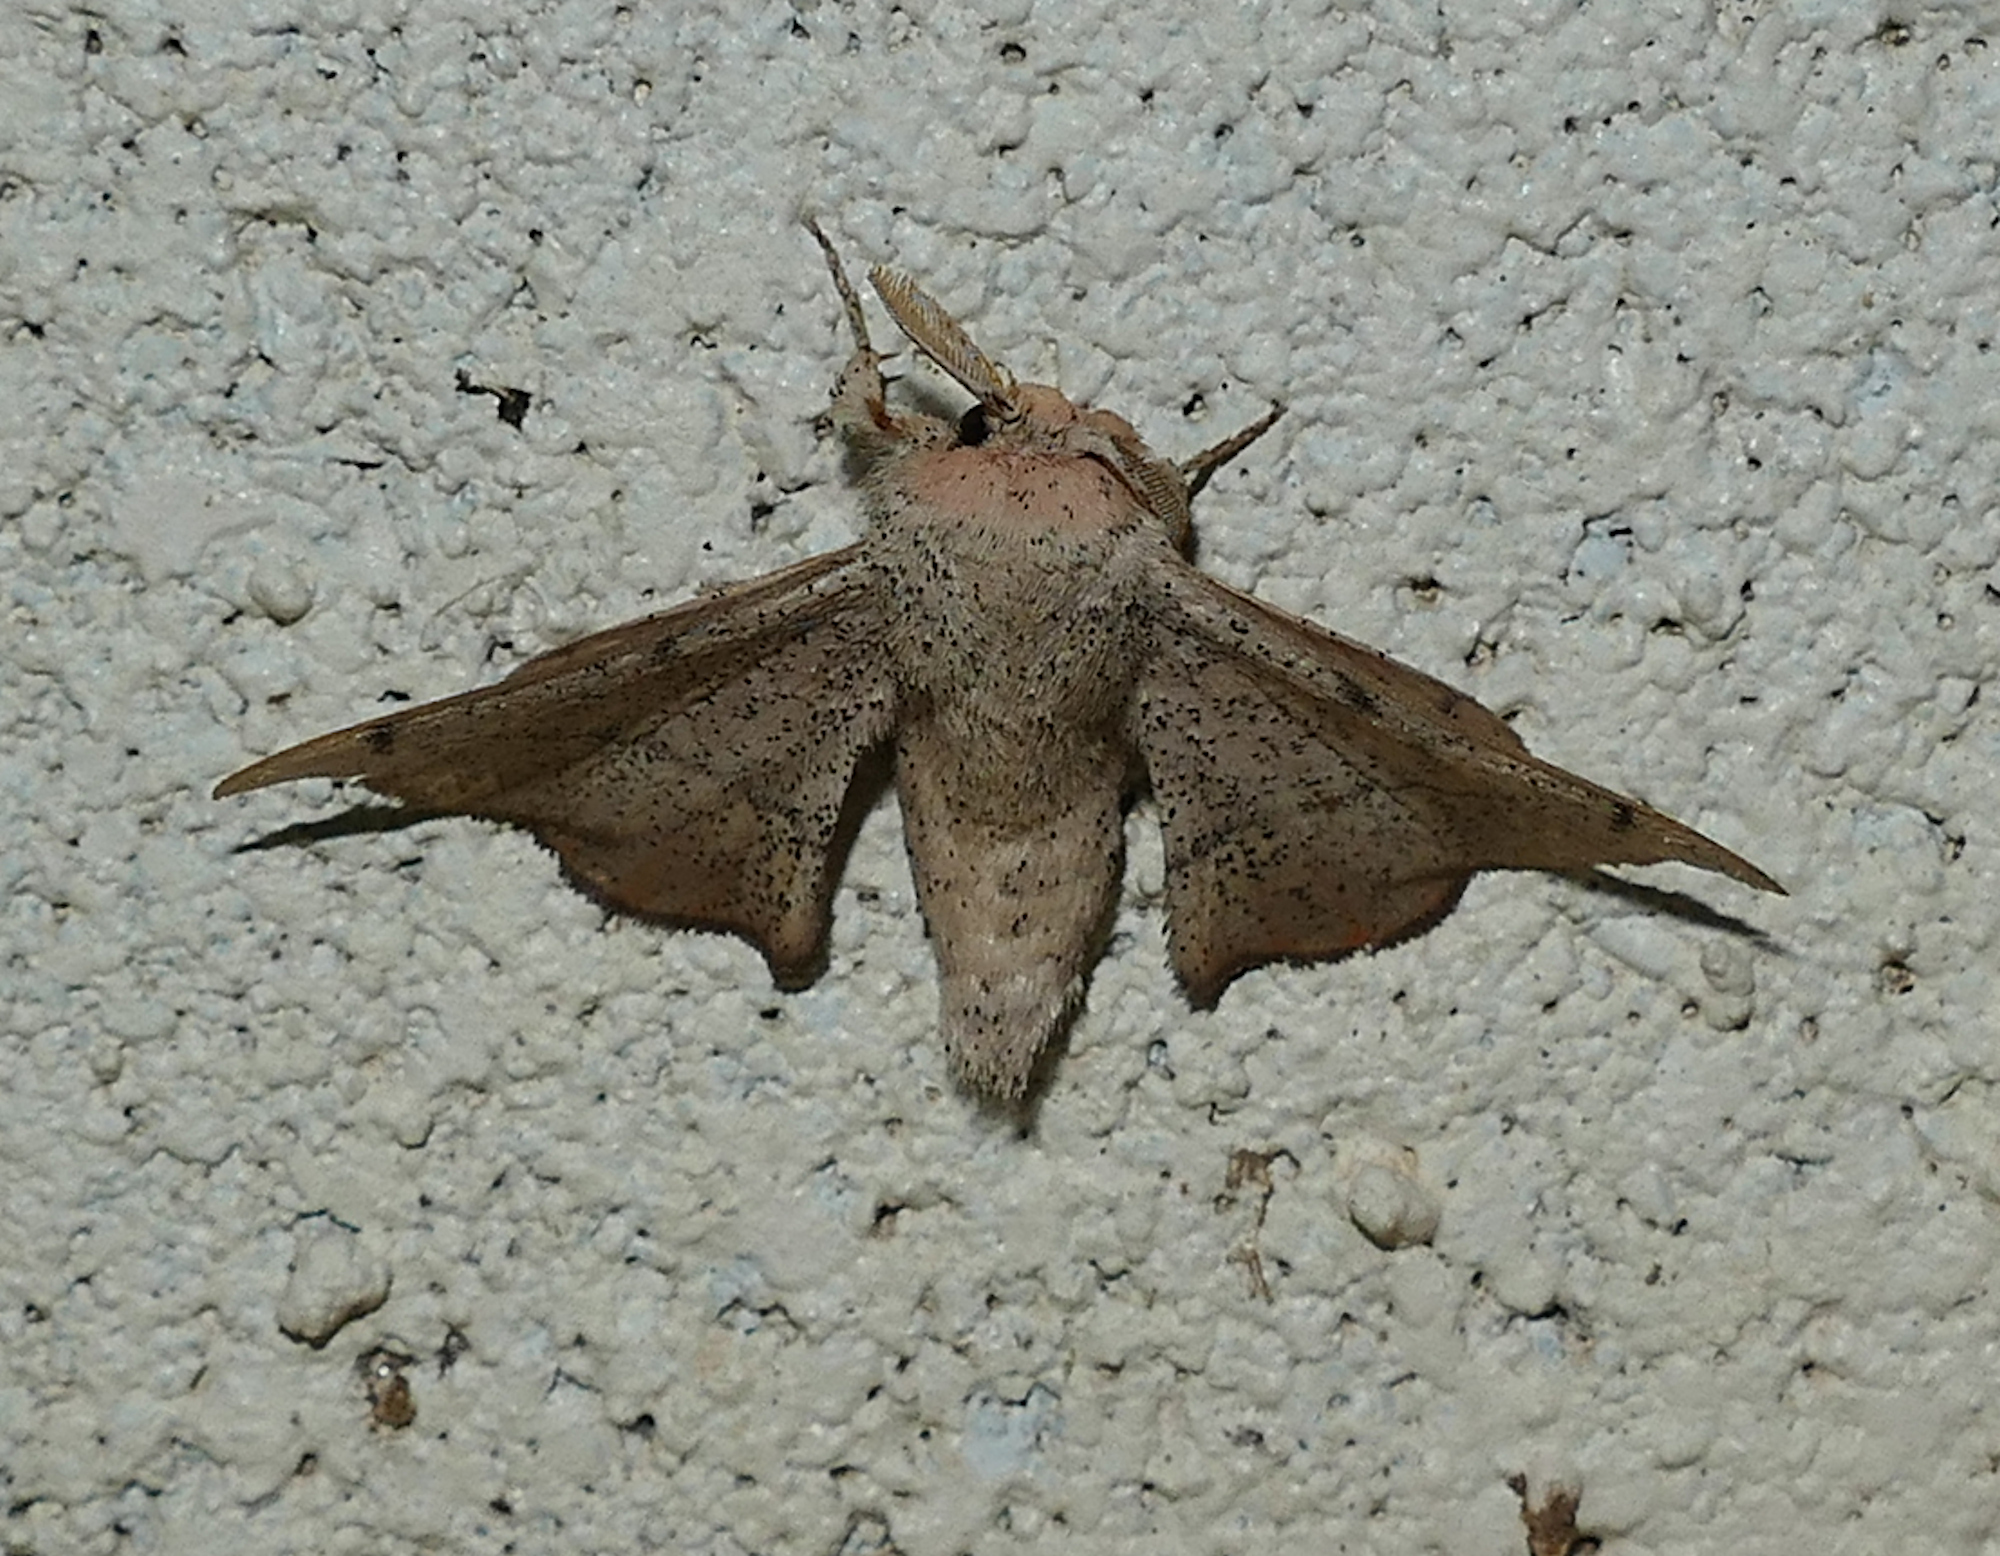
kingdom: Animalia
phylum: Arthropoda
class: Insecta
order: Lepidoptera
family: Mimallonidae
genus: Cicinnus
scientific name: Cicinnus melsheimeri
